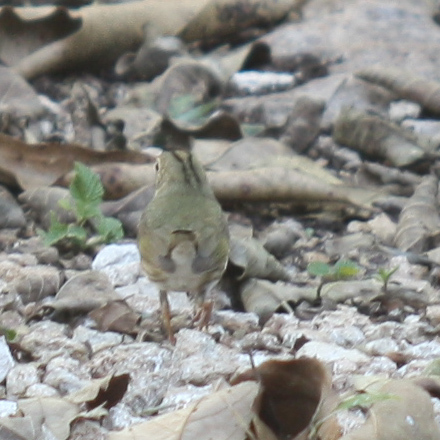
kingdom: Animalia
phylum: Chordata
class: Aves
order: Passeriformes
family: Parulidae
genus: Seiurus
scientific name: Seiurus aurocapilla
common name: Ovenbird
